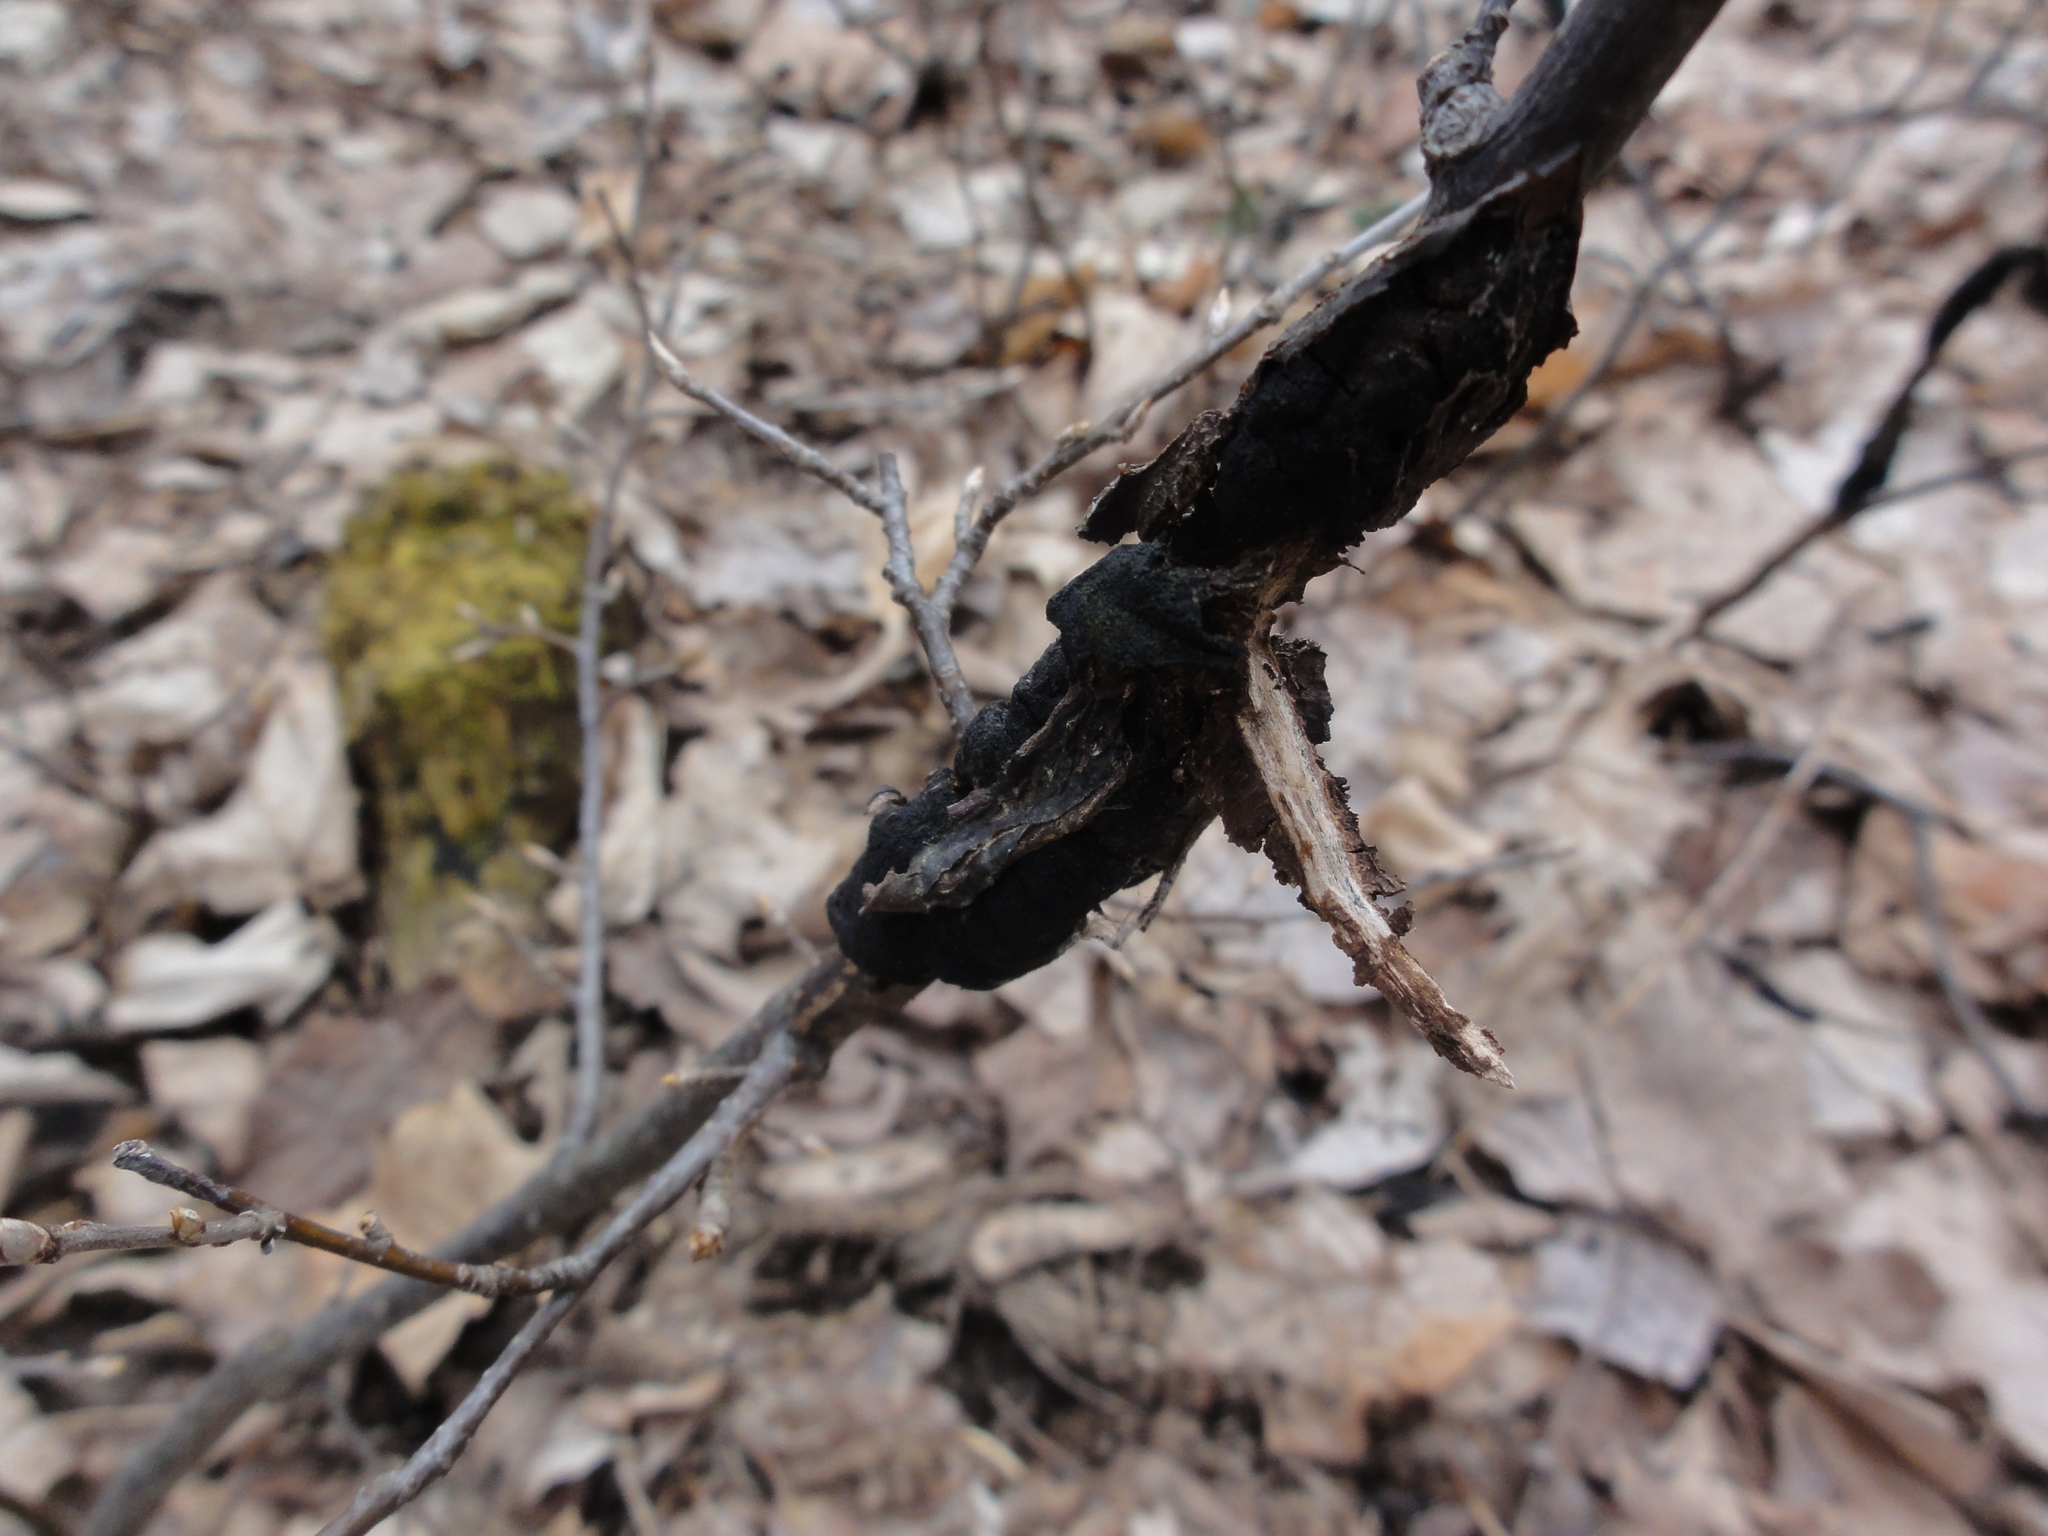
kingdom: Fungi
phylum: Ascomycota
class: Dothideomycetes
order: Venturiales
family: Venturiaceae
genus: Apiosporina
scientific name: Apiosporina morbosa
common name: Black knot
